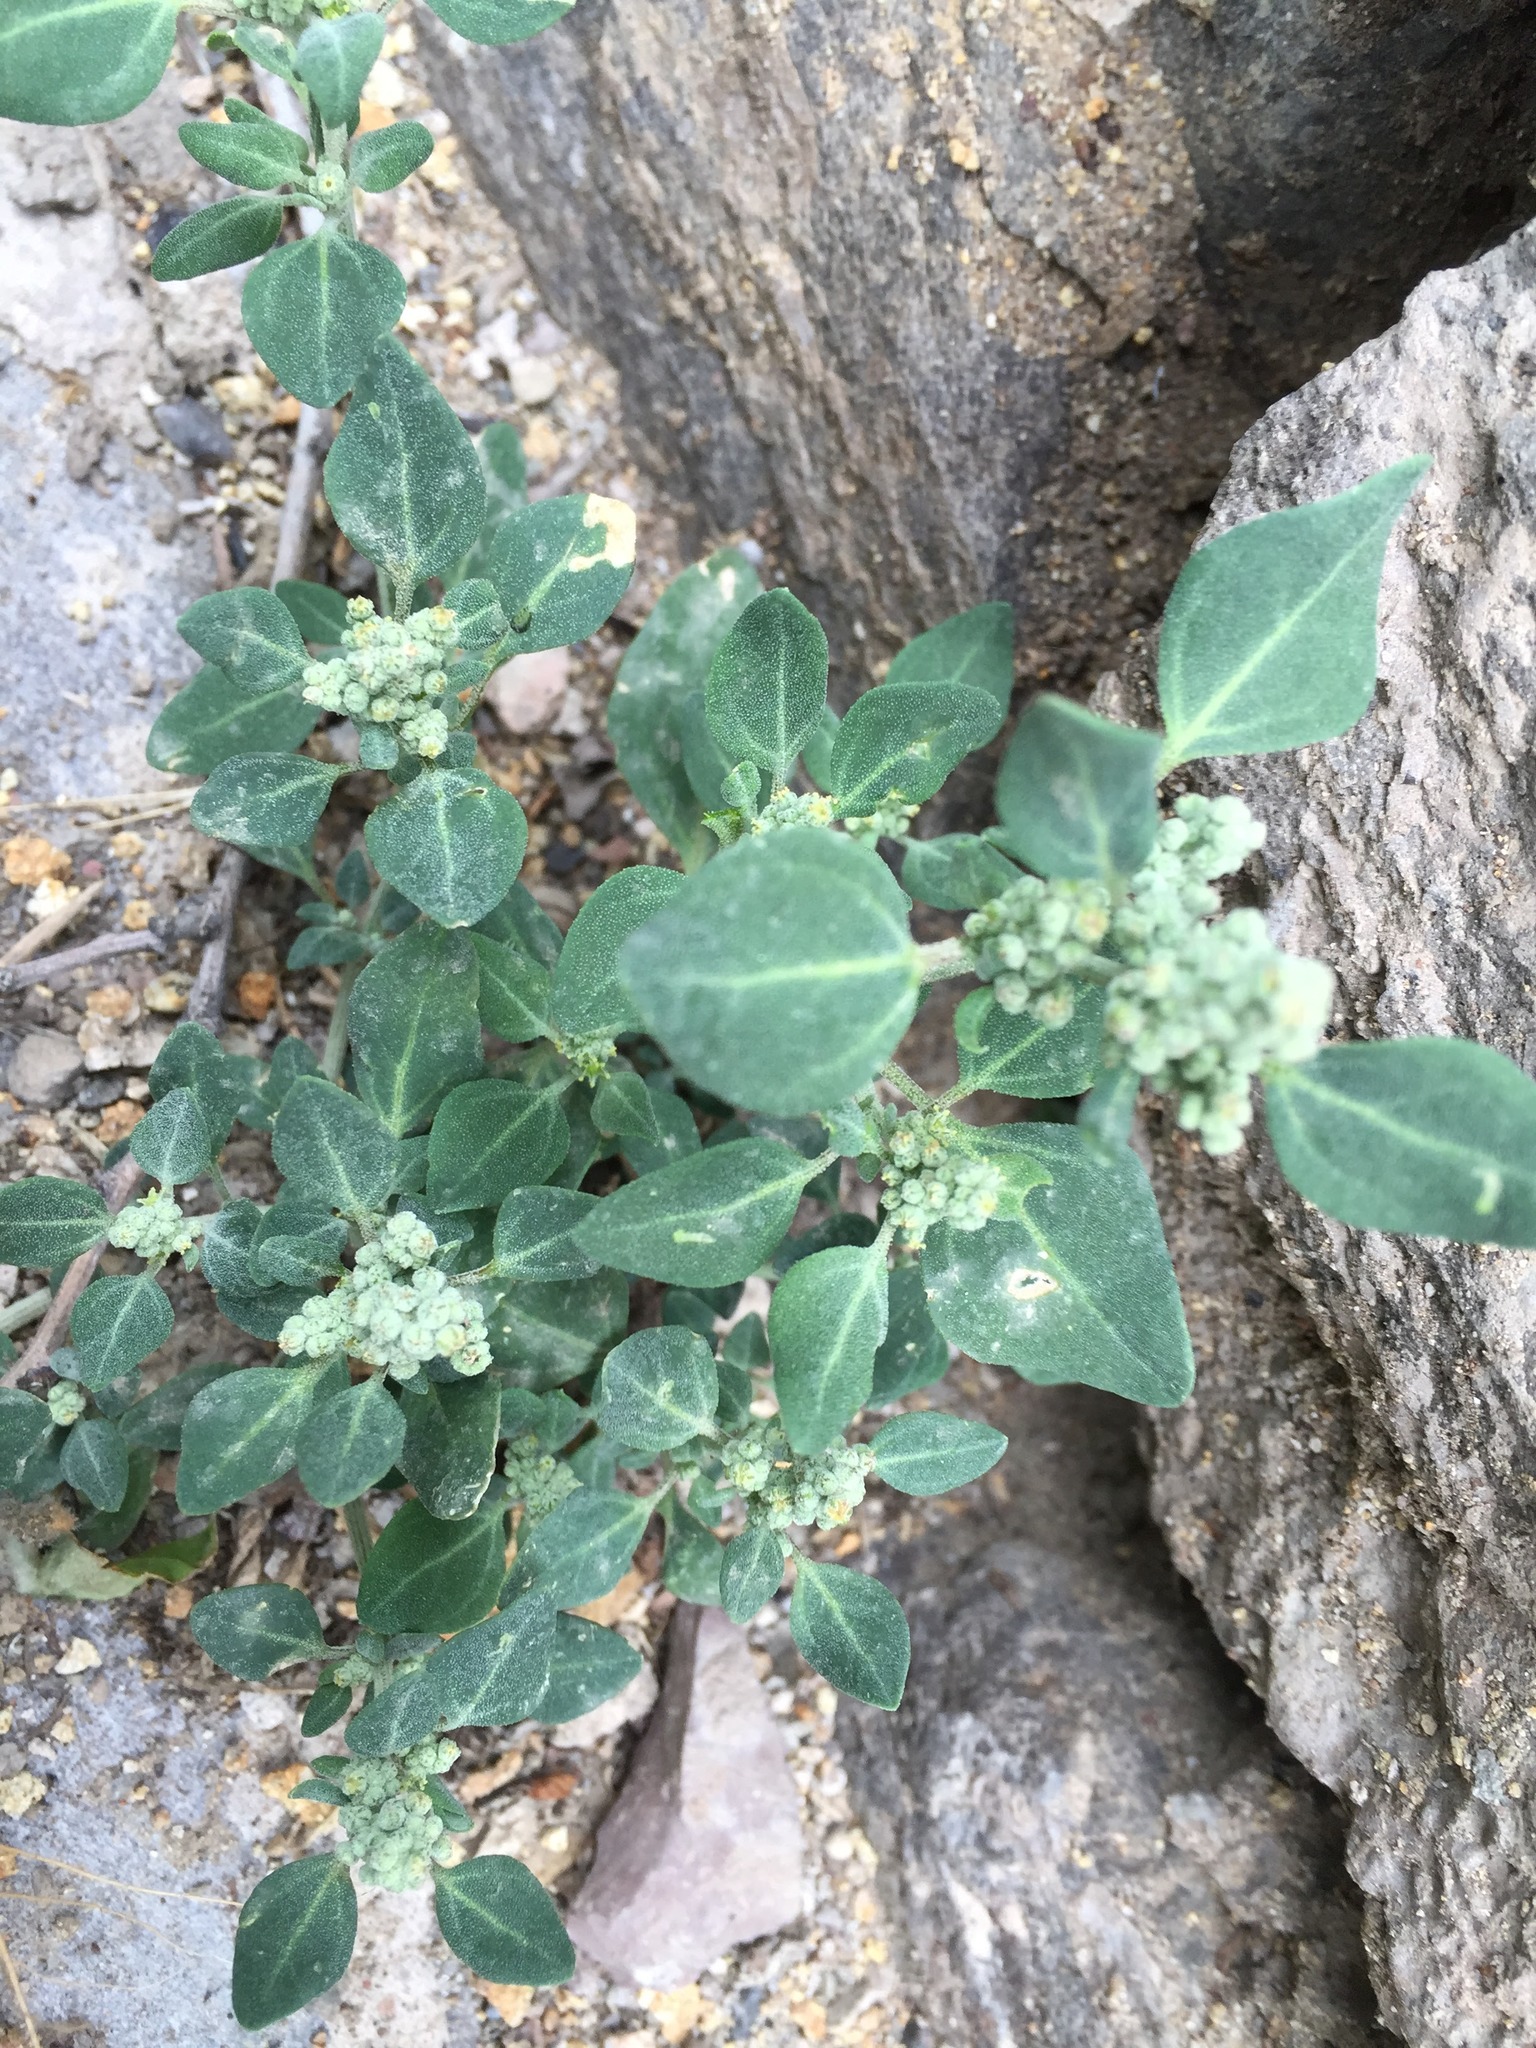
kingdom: Plantae
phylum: Tracheophyta
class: Magnoliopsida
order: Caryophyllales
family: Amaranthaceae
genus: Chenopodium
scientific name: Chenopodium vulvaria
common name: Stinking goosefoot
